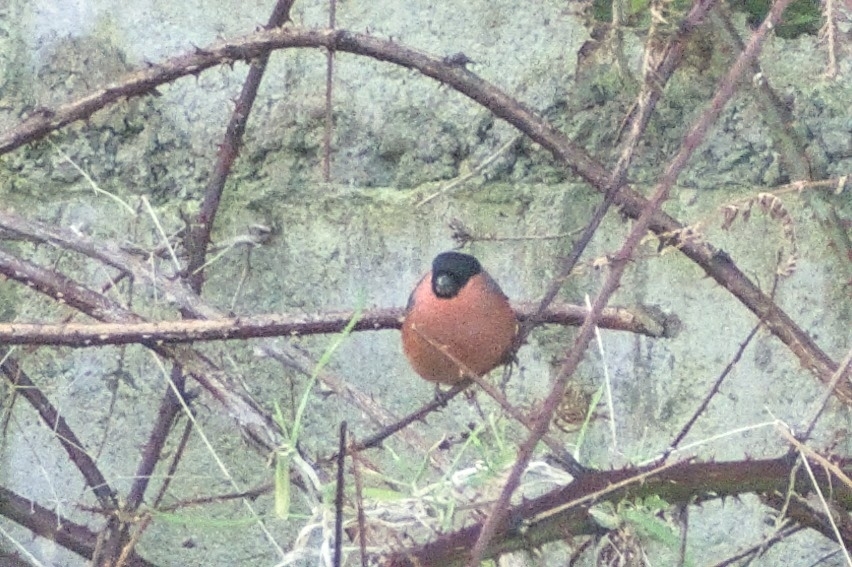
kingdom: Animalia
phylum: Chordata
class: Aves
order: Passeriformes
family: Fringillidae
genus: Pyrrhula
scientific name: Pyrrhula pyrrhula
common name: Eurasian bullfinch
